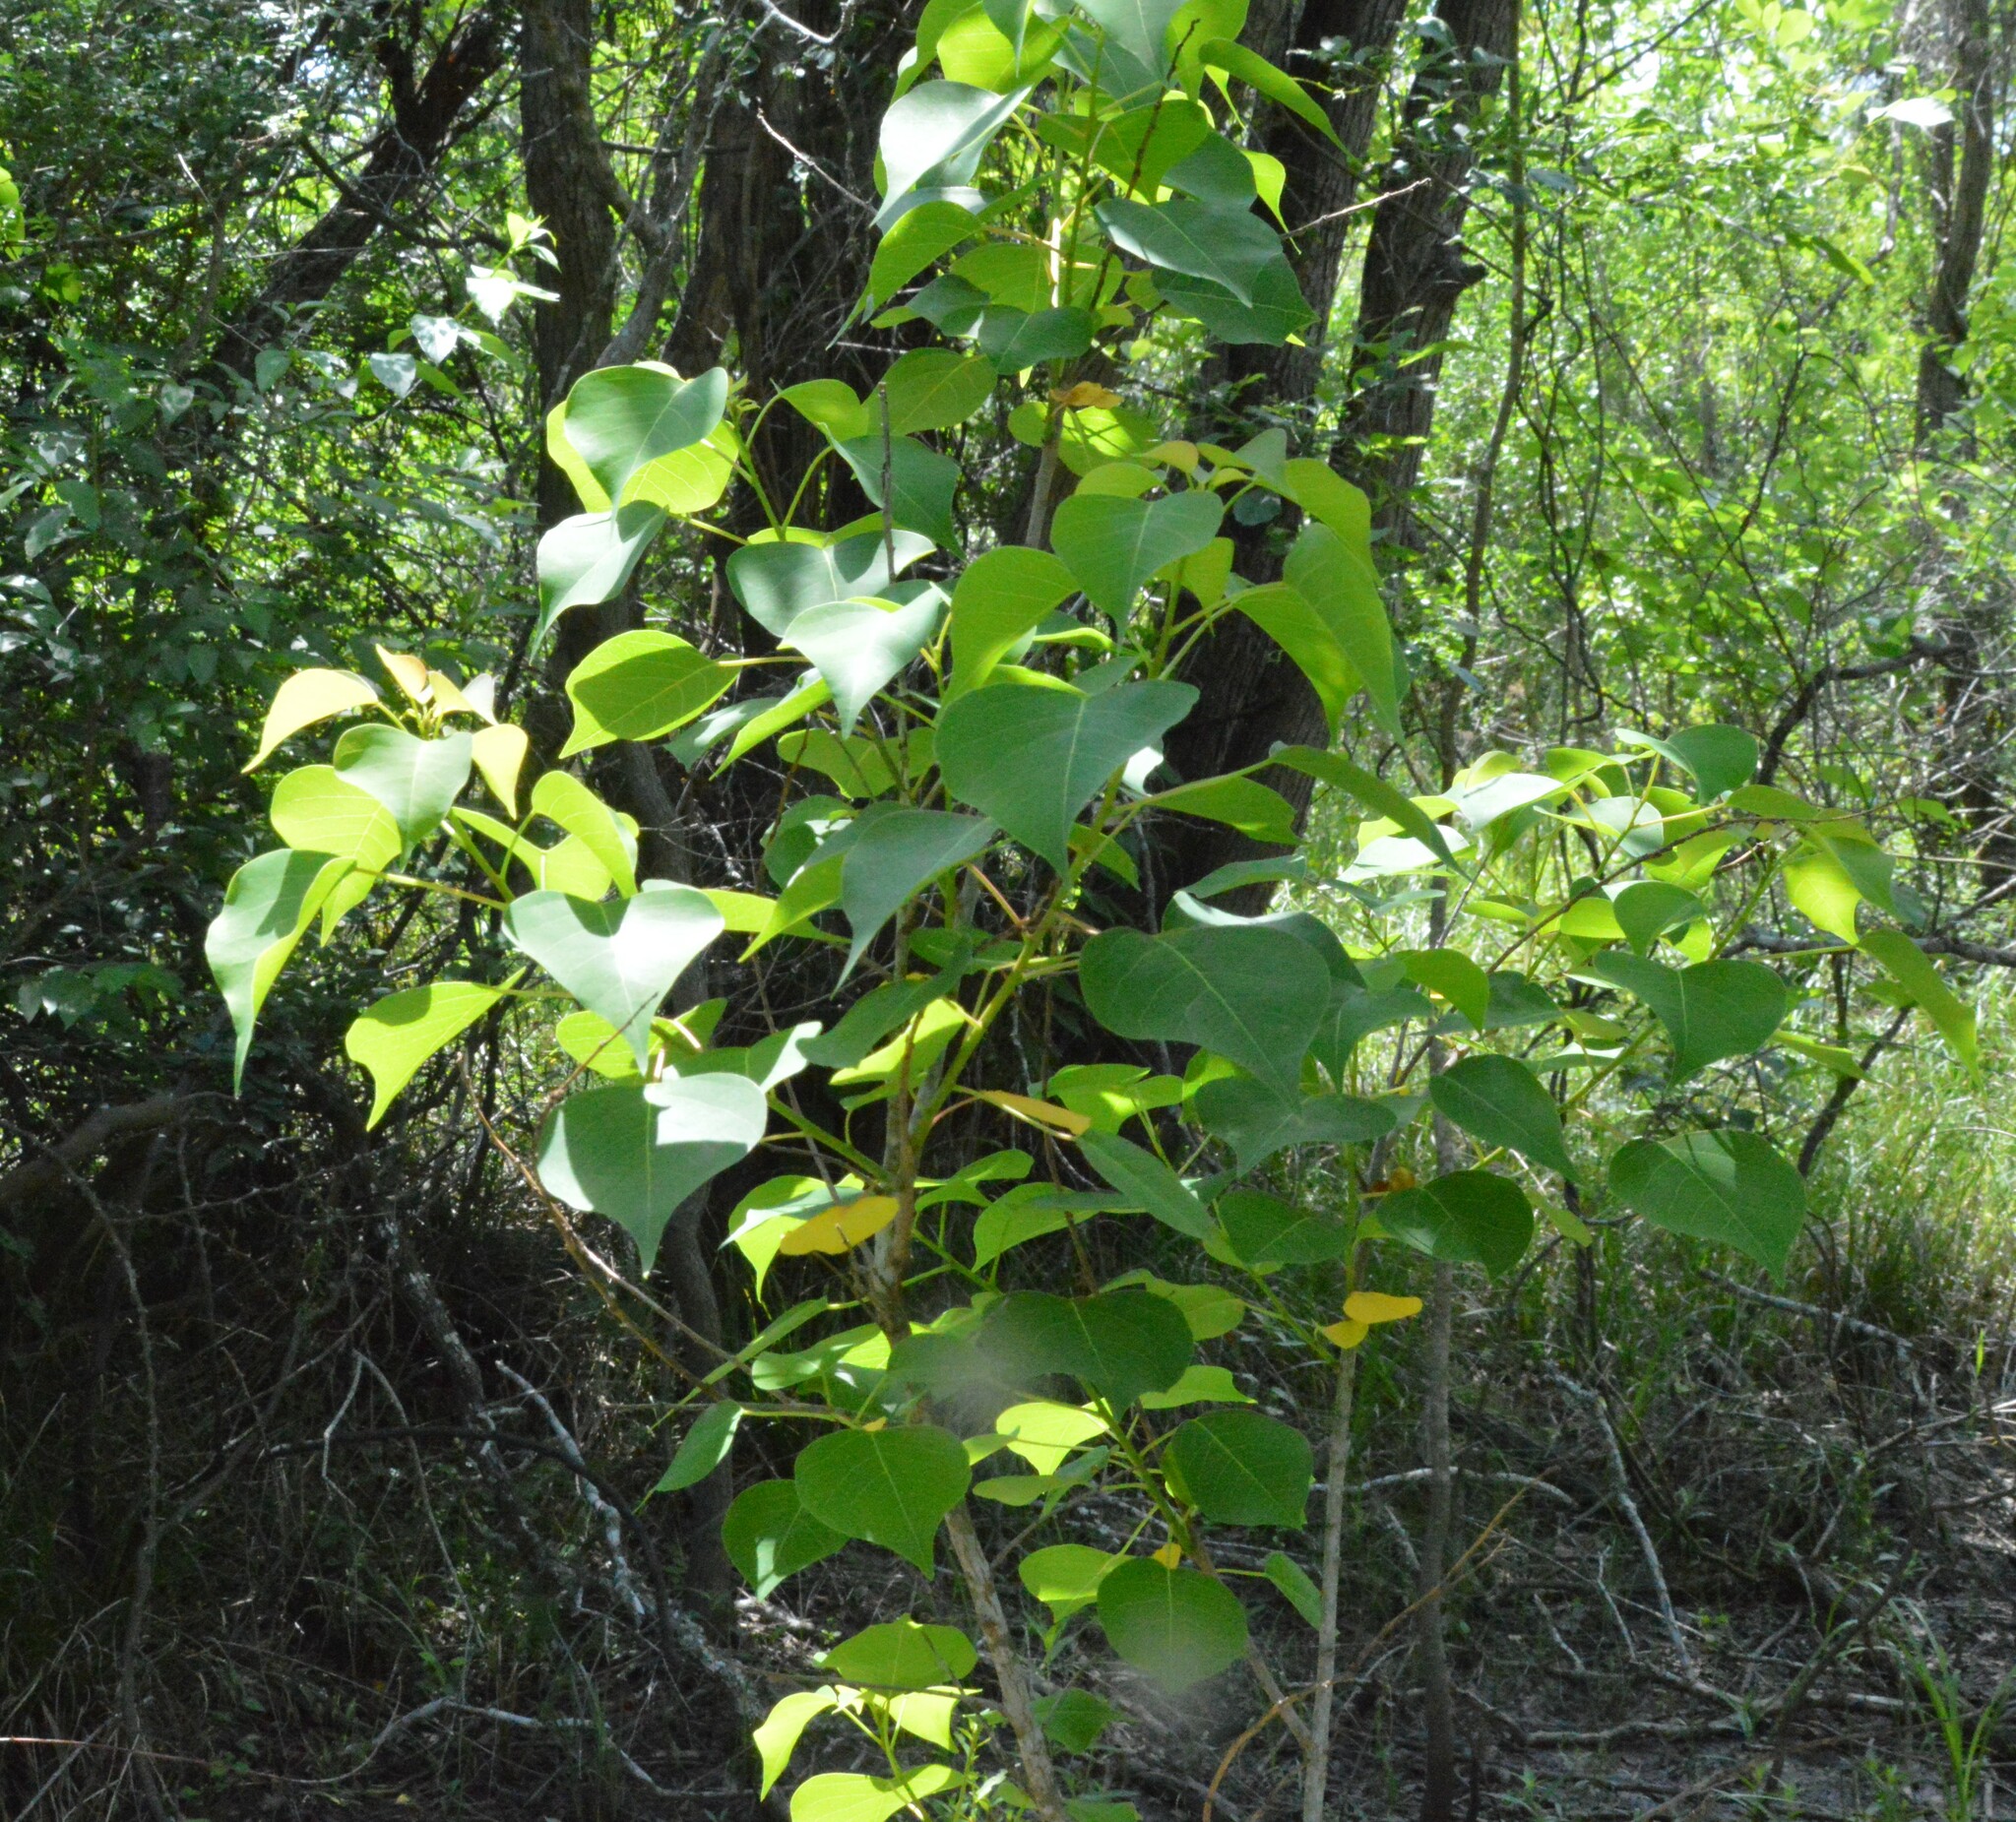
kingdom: Plantae
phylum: Tracheophyta
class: Magnoliopsida
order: Malpighiales
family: Euphorbiaceae
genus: Triadica
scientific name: Triadica sebifera
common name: Chinese tallow
